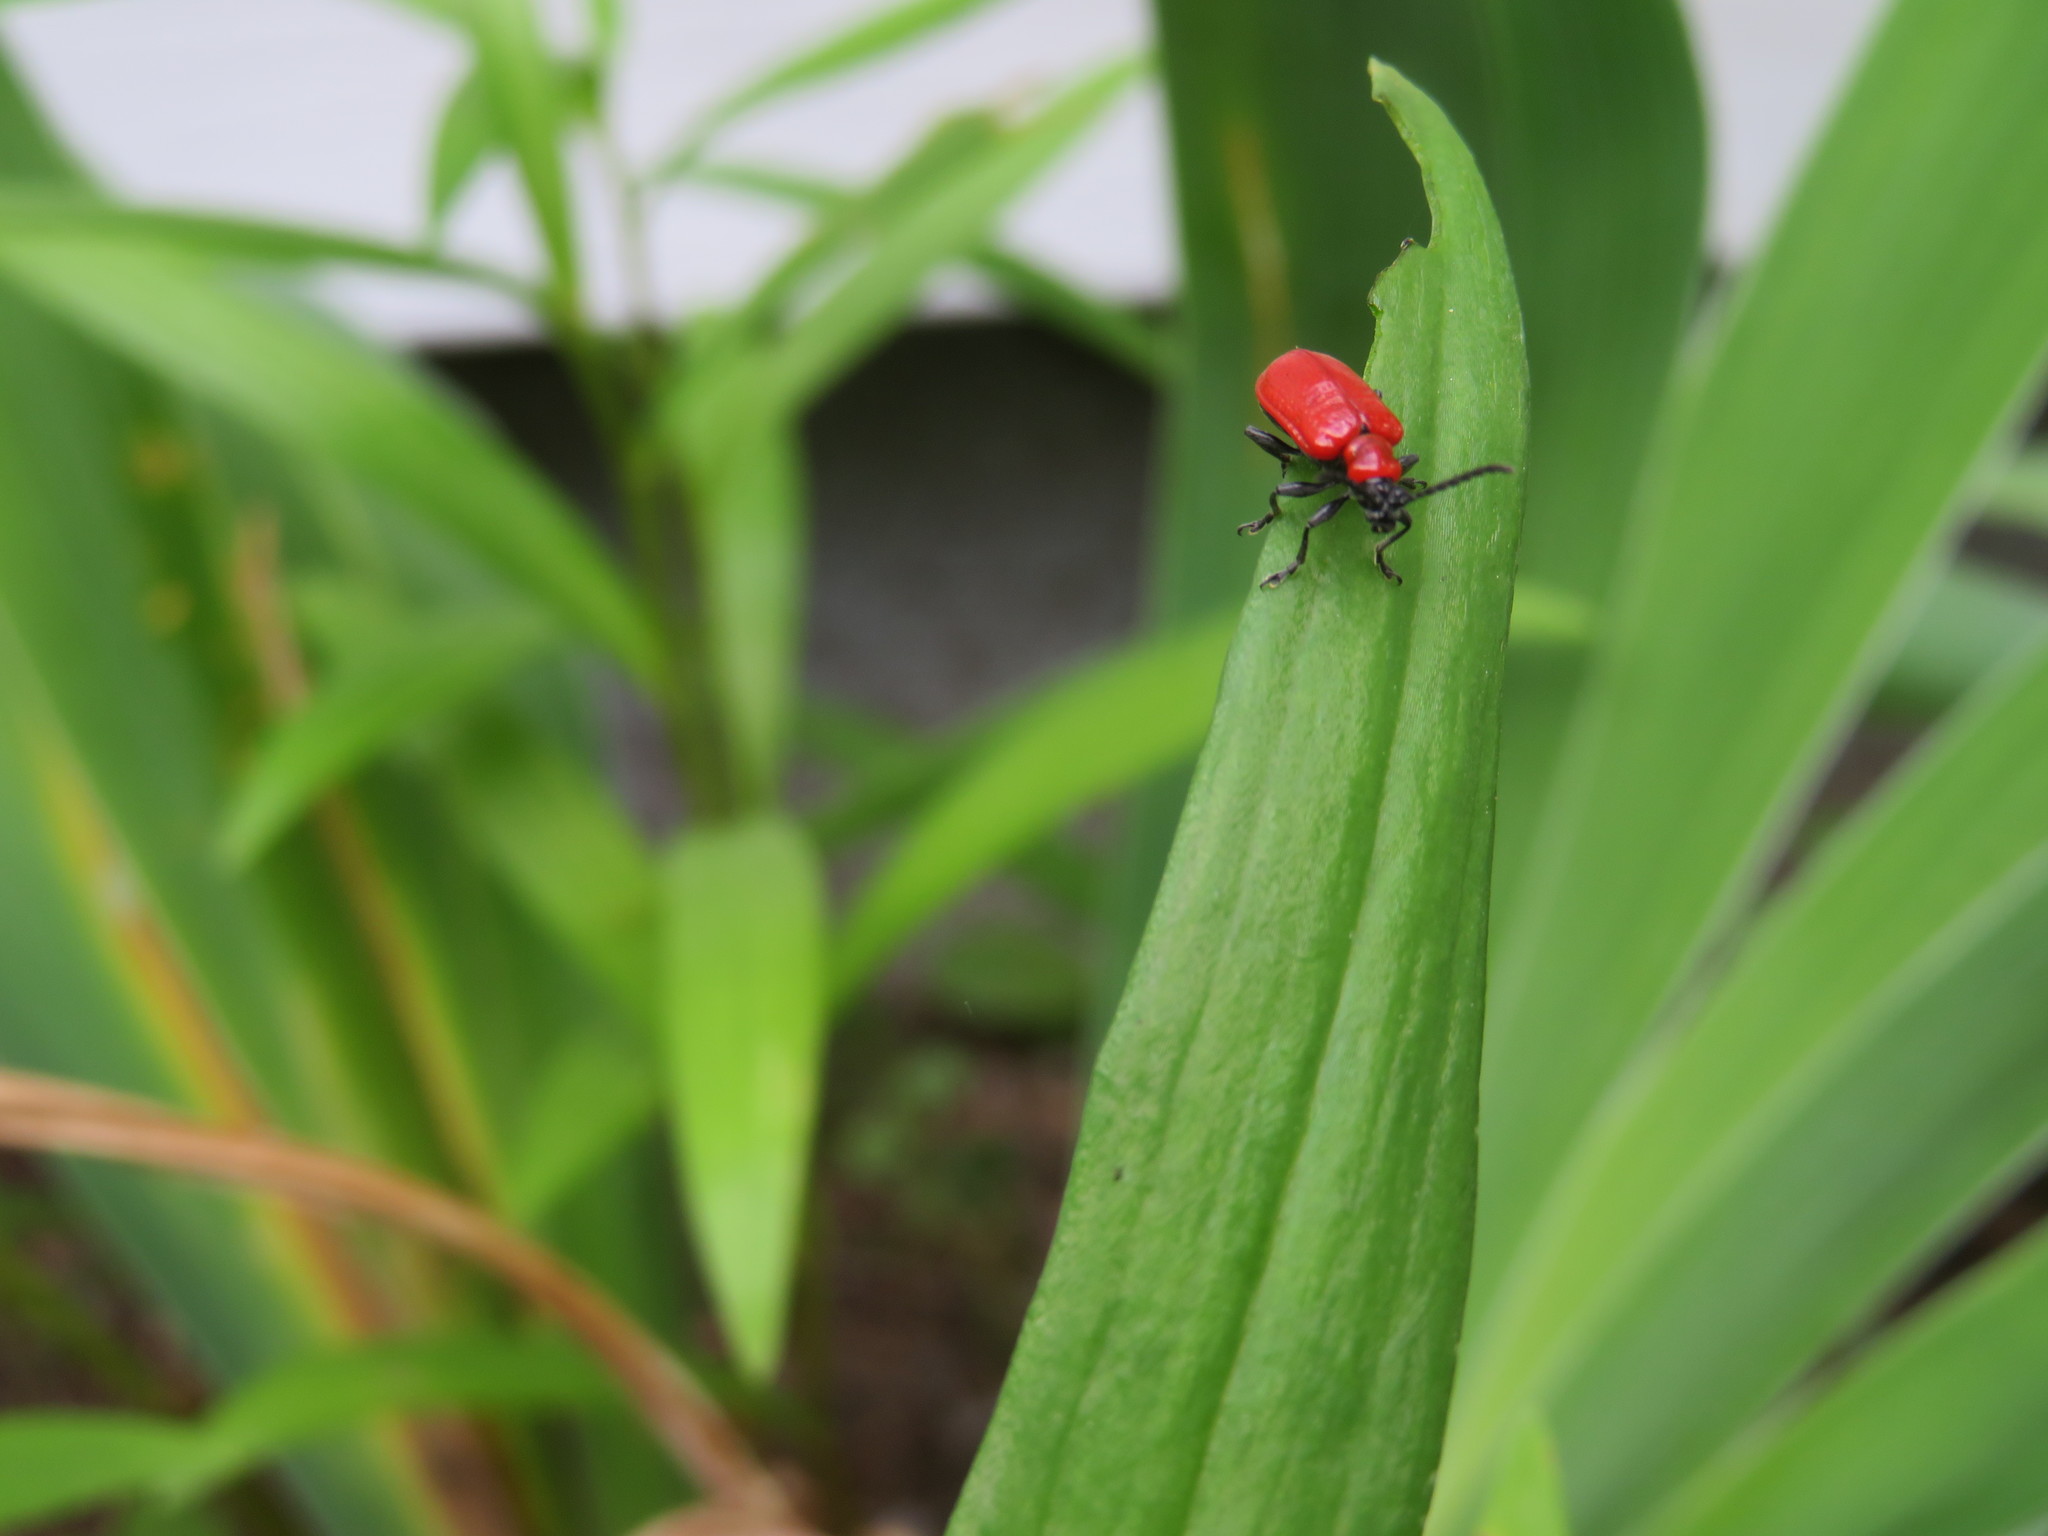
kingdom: Animalia
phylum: Arthropoda
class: Insecta
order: Coleoptera
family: Chrysomelidae
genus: Lilioceris
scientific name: Lilioceris lilii
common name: Lily beetle
